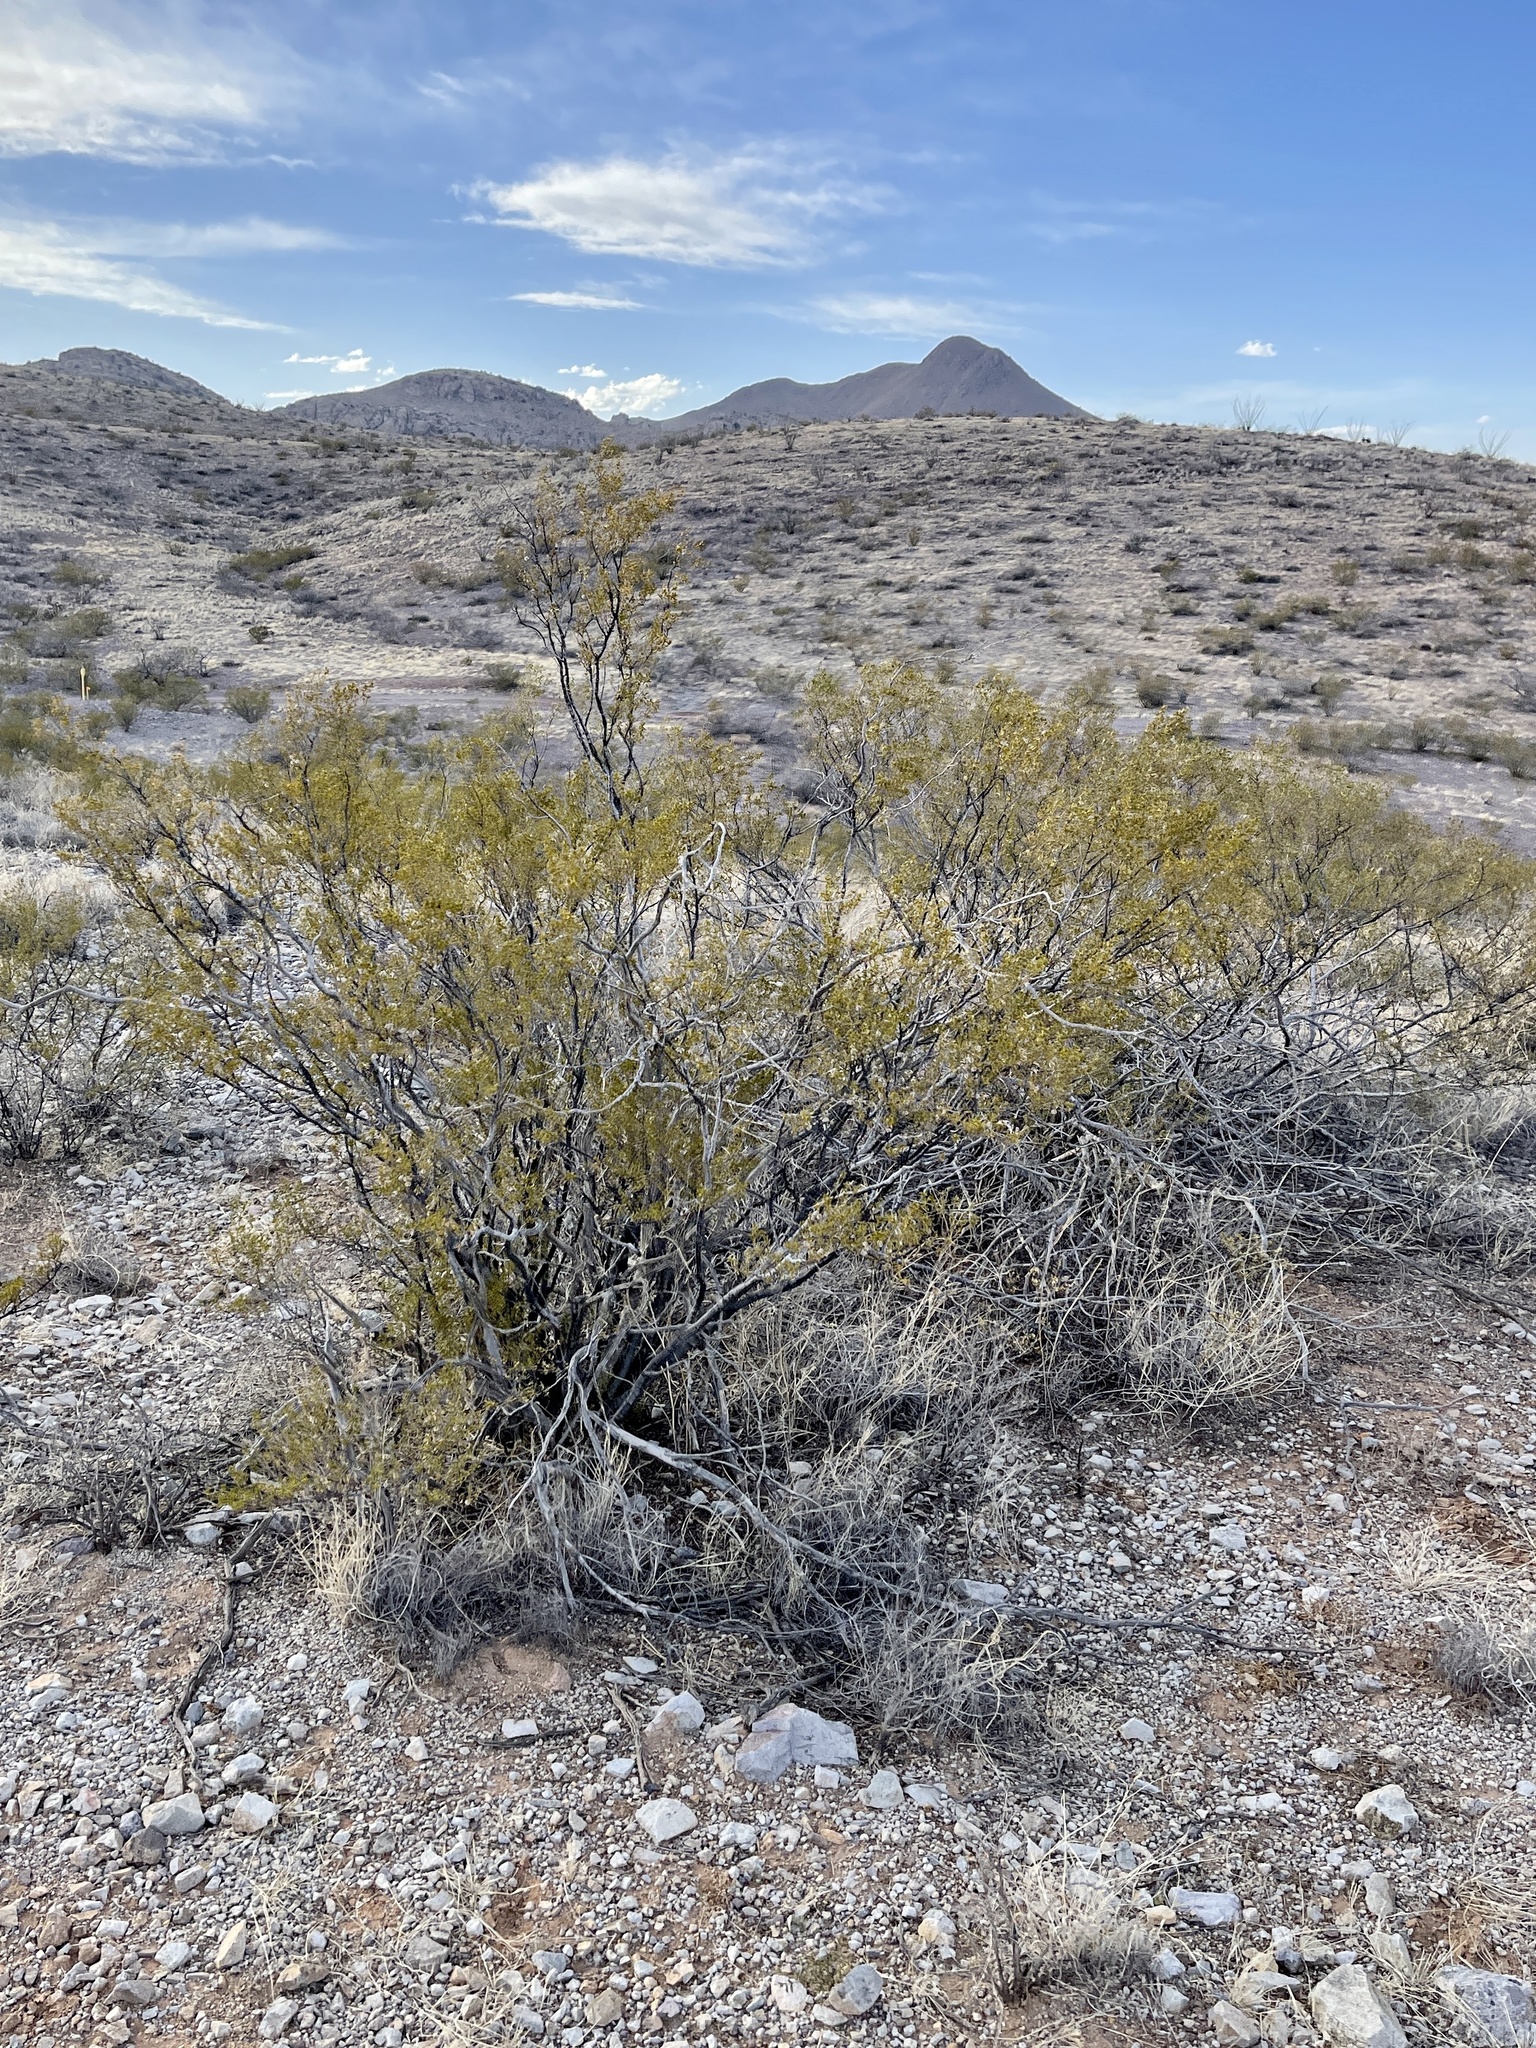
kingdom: Plantae
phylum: Tracheophyta
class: Magnoliopsida
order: Zygophyllales
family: Zygophyllaceae
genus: Larrea
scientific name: Larrea tridentata
